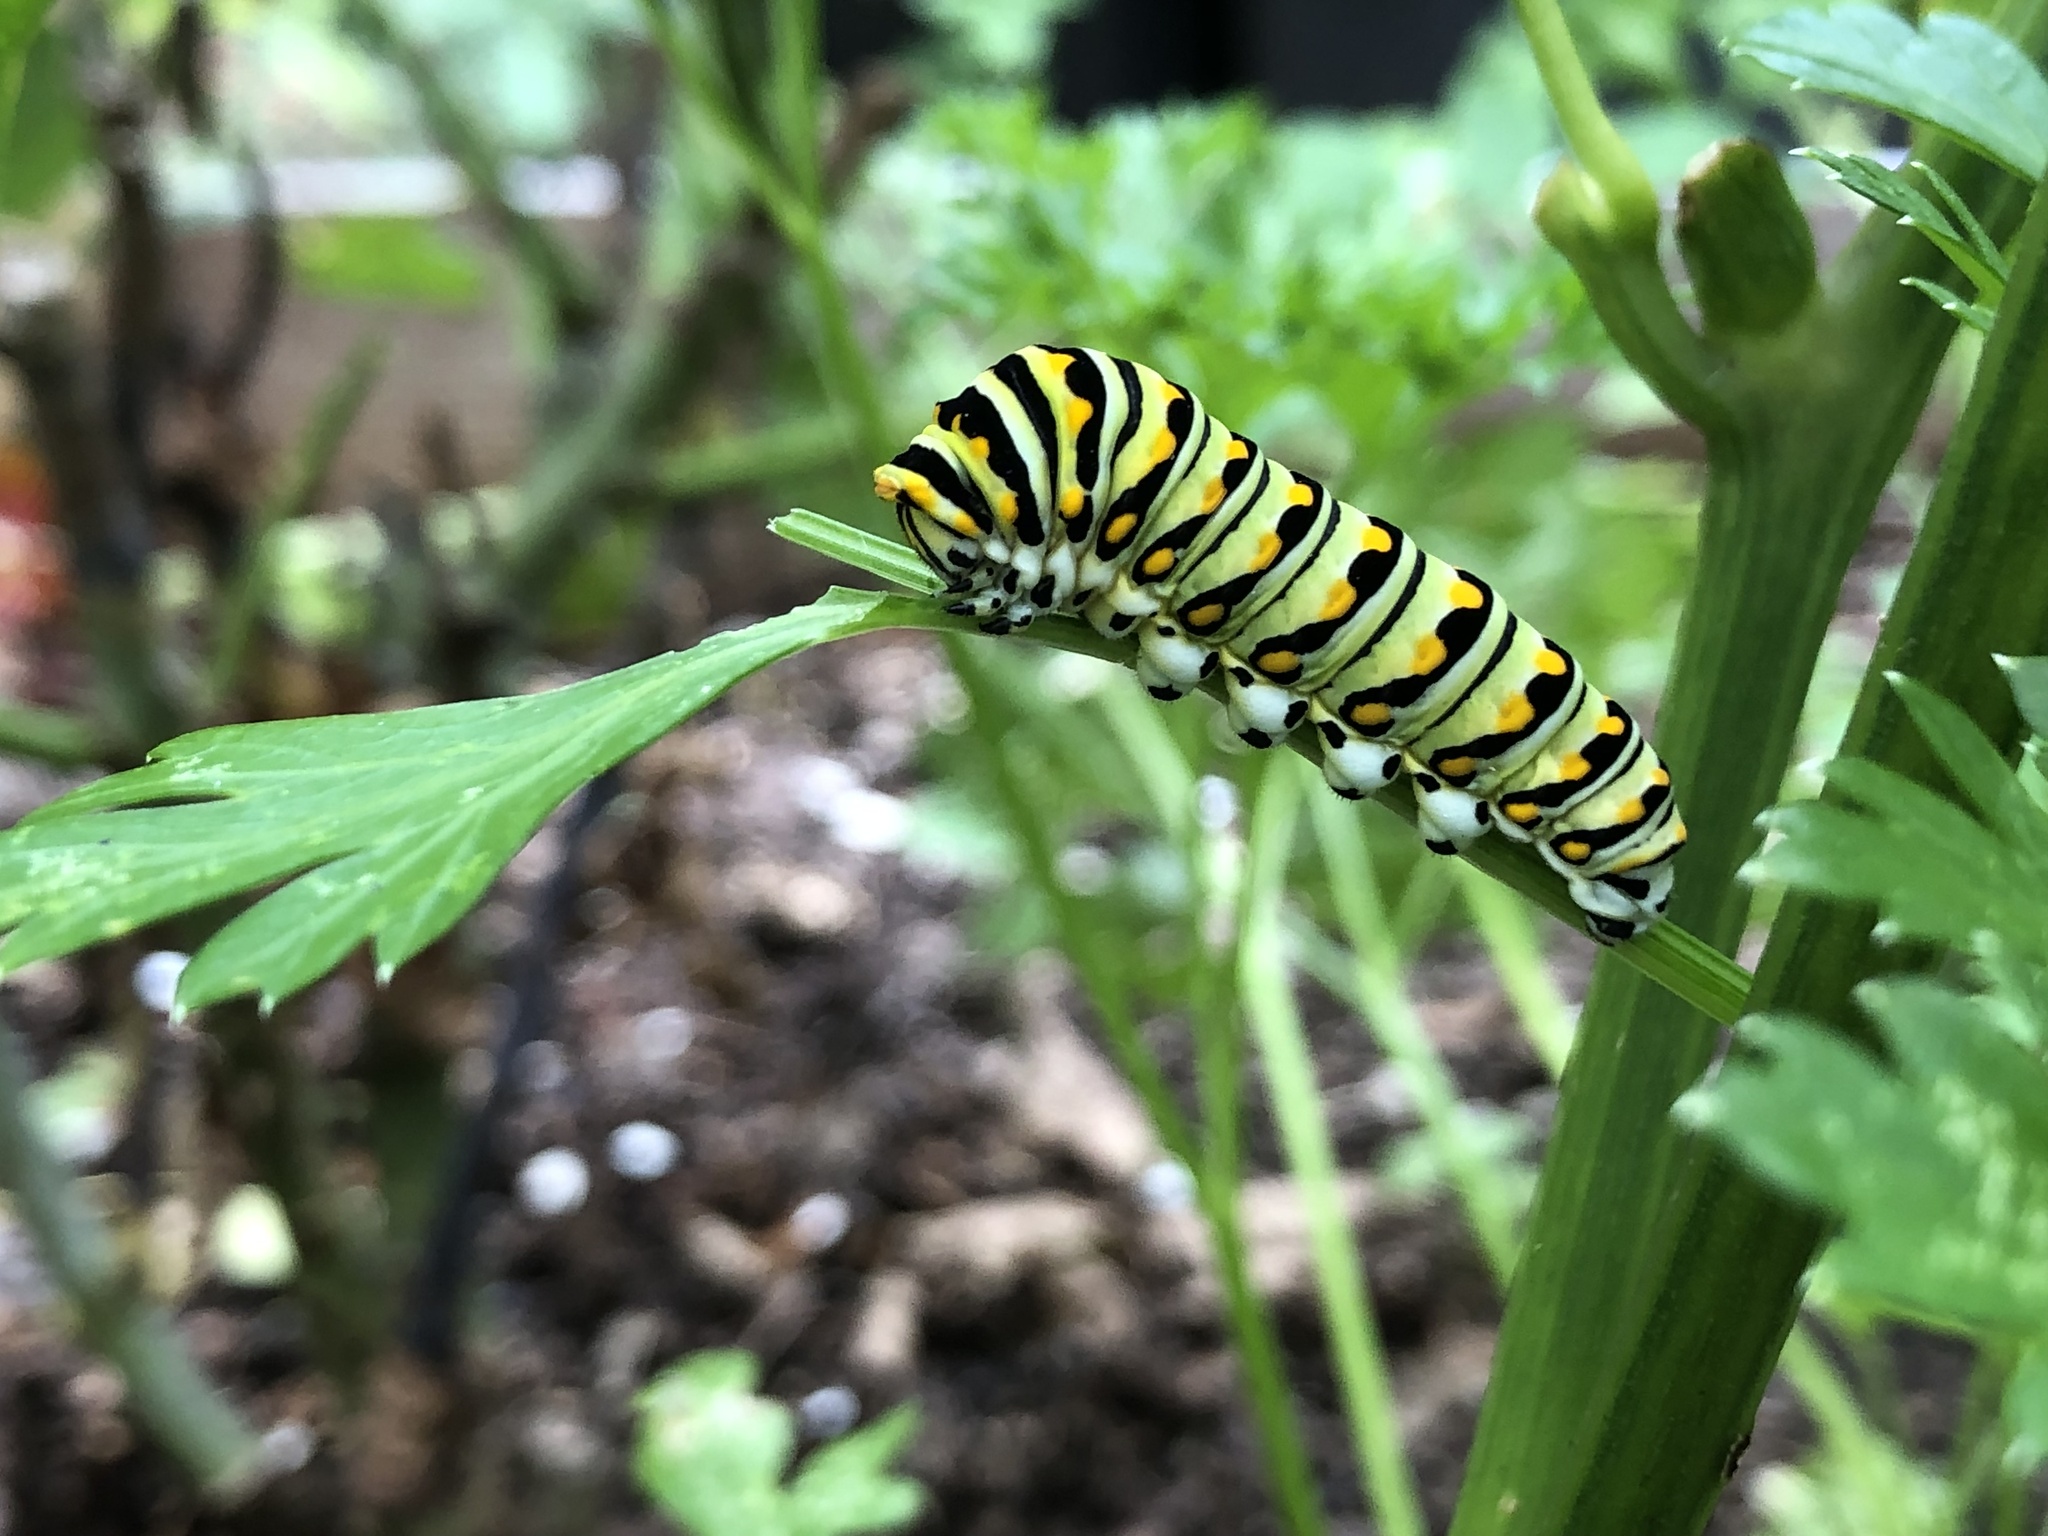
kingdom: Animalia
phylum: Arthropoda
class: Insecta
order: Lepidoptera
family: Papilionidae
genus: Papilio
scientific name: Papilio polyxenes
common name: Black swallowtail
